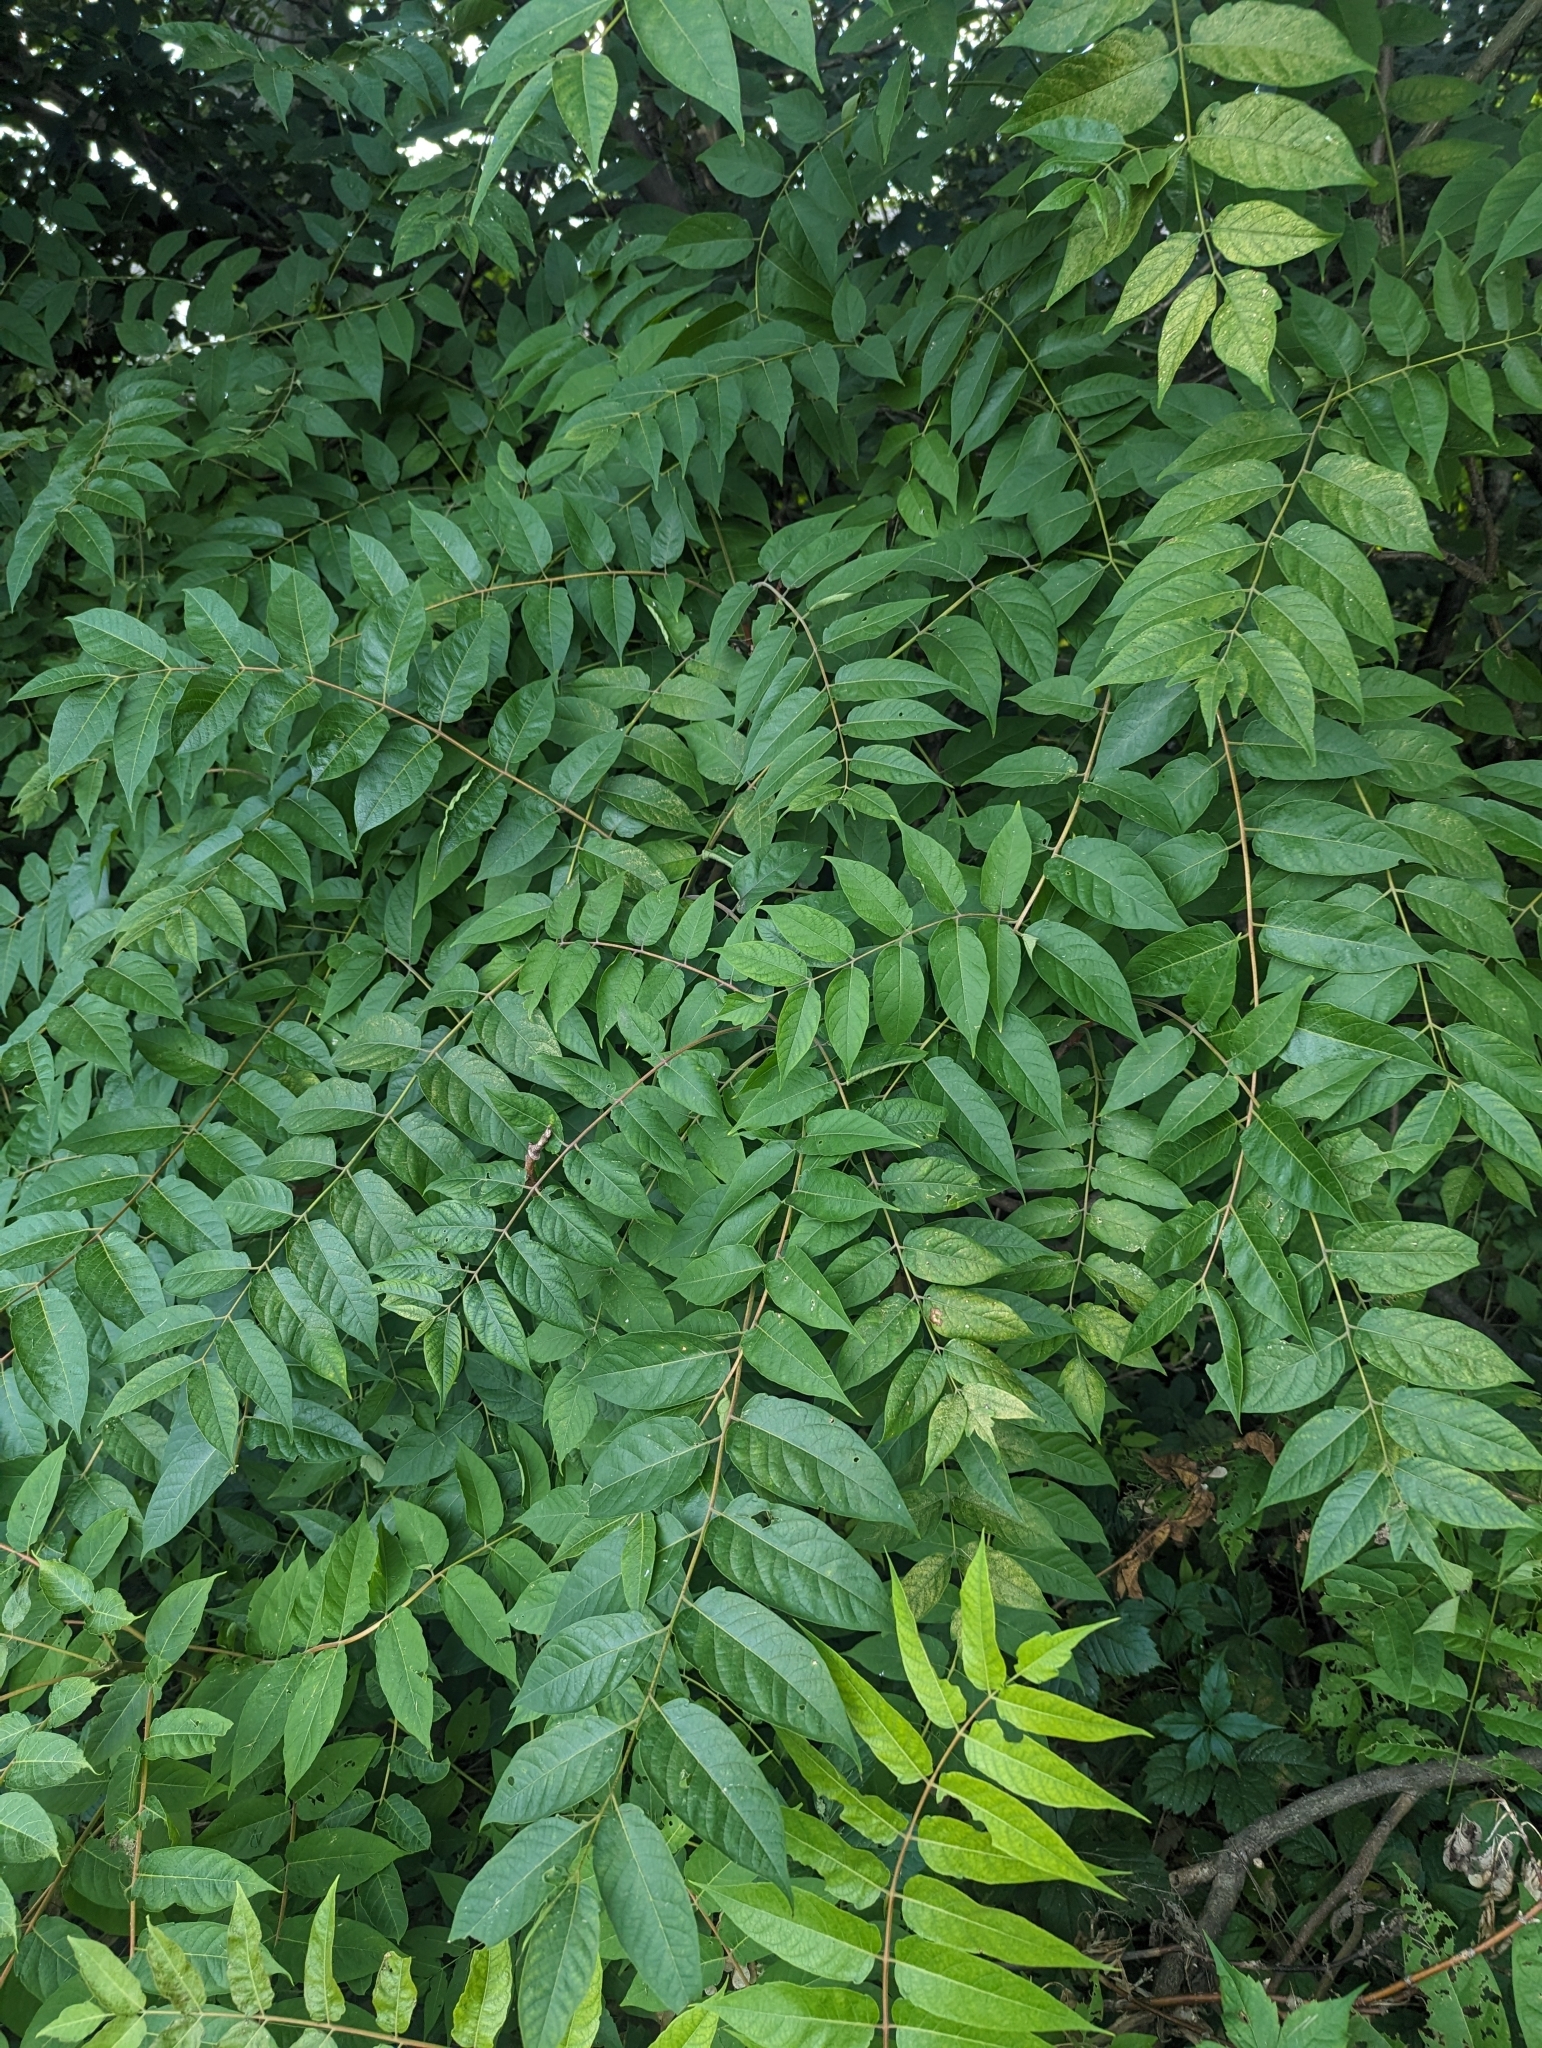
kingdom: Plantae
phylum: Tracheophyta
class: Magnoliopsida
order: Sapindales
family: Simaroubaceae
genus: Ailanthus
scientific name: Ailanthus altissima
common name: Tree-of-heaven
